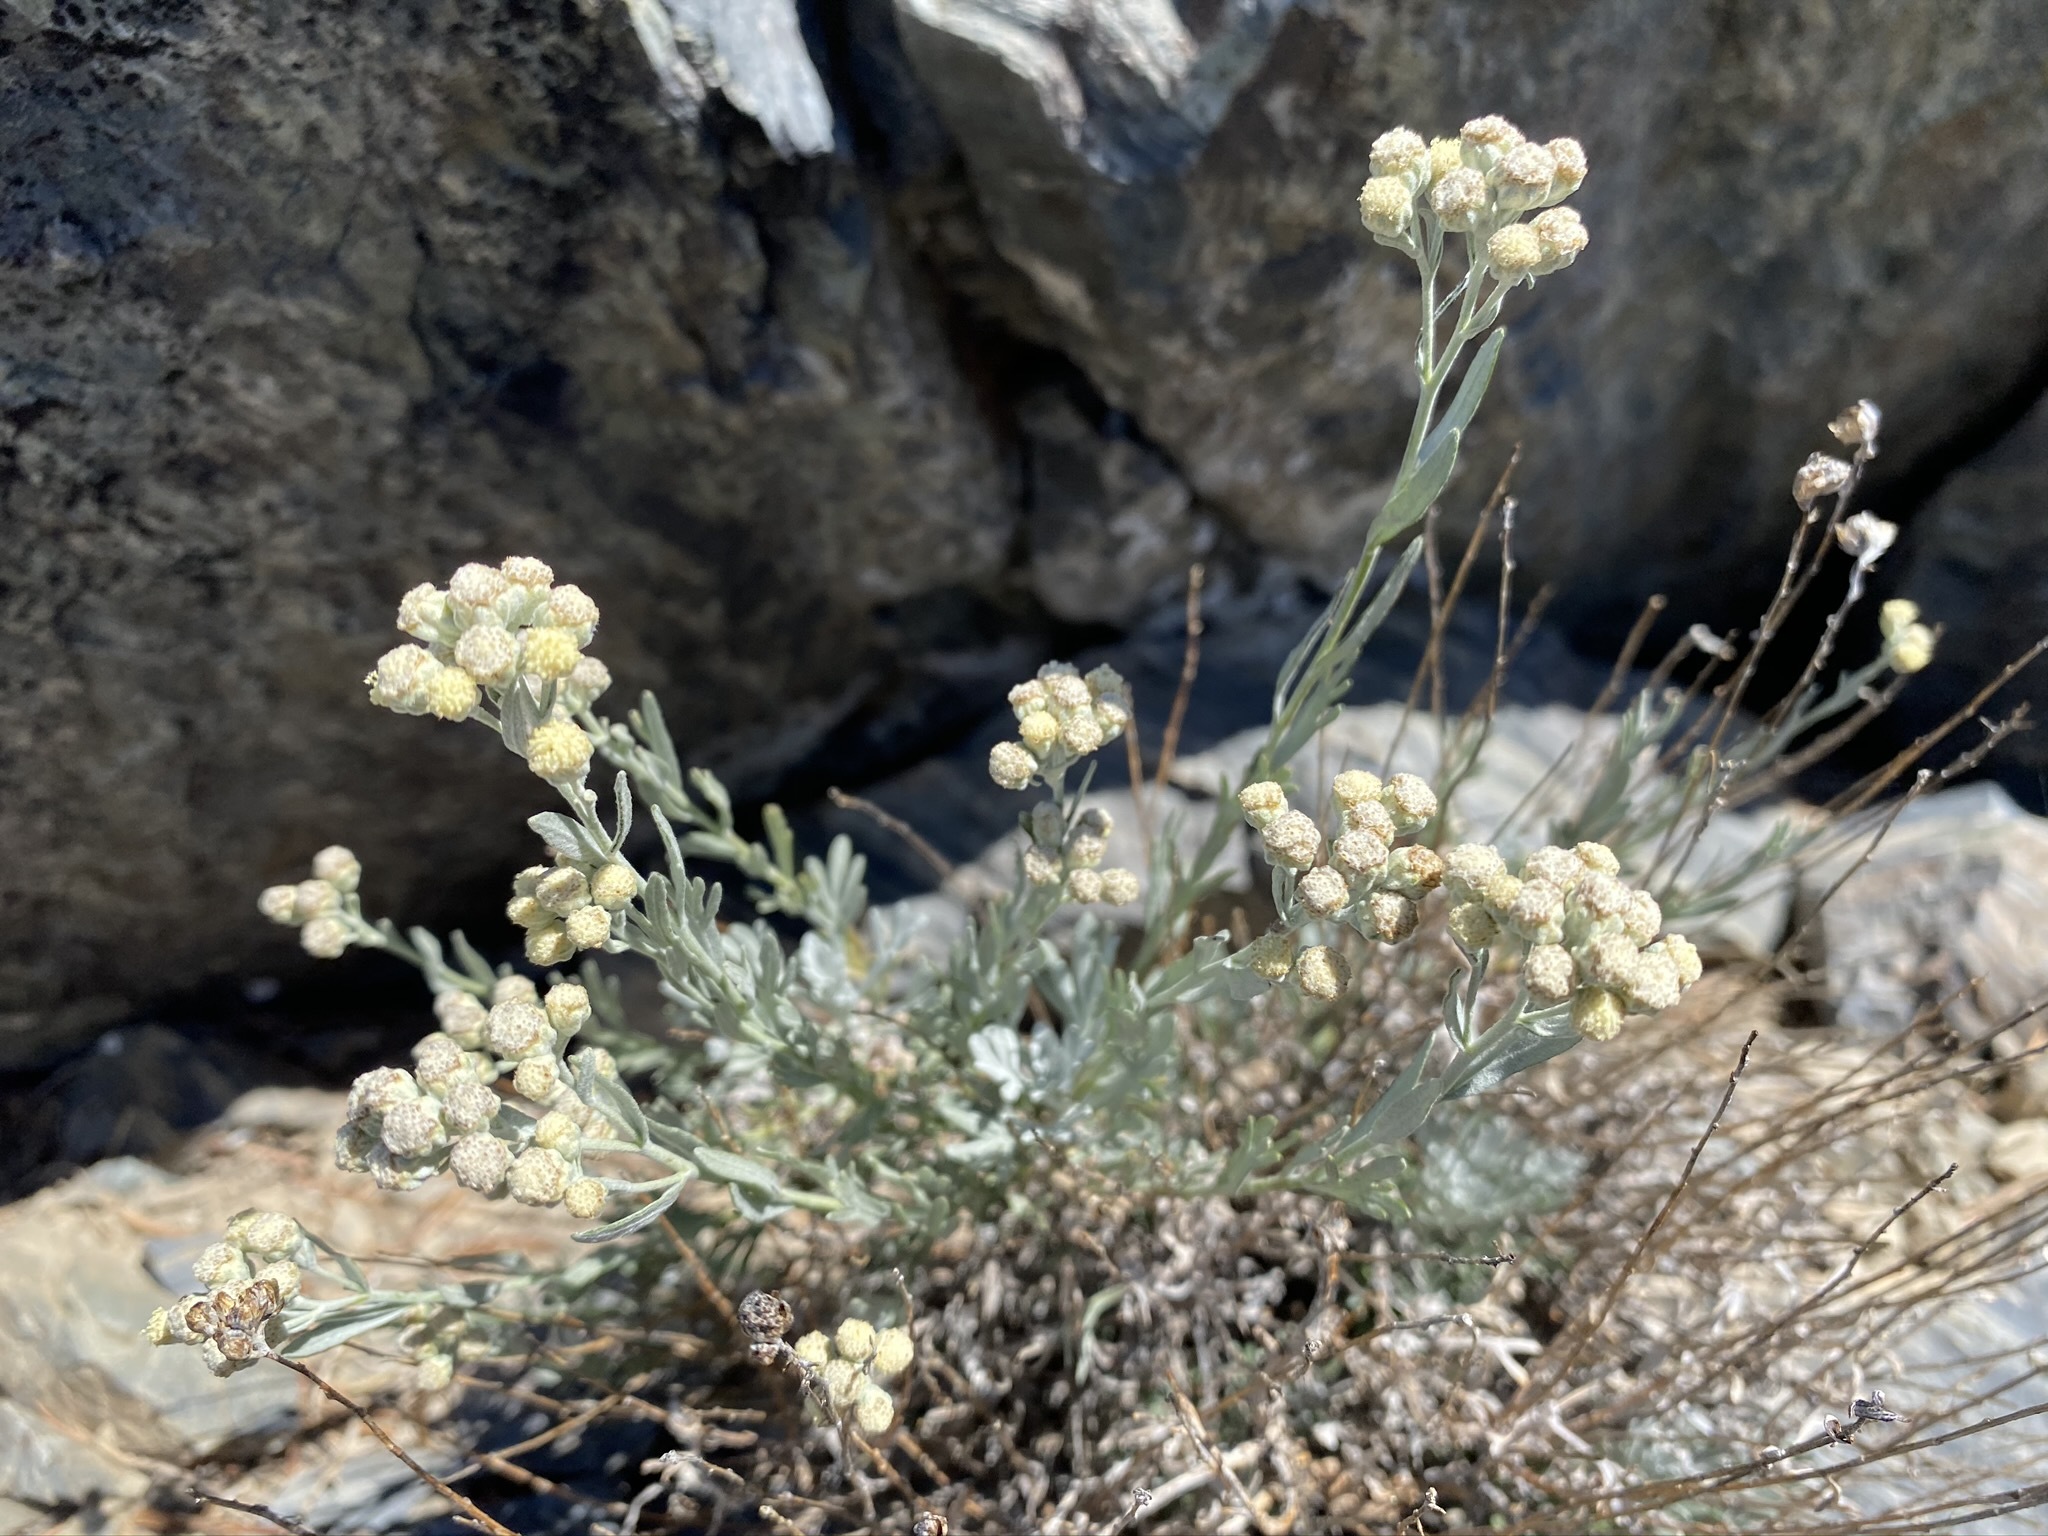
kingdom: Plantae
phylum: Tracheophyta
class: Magnoliopsida
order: Asterales
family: Asteraceae
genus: Artemisia
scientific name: Artemisia albicans
